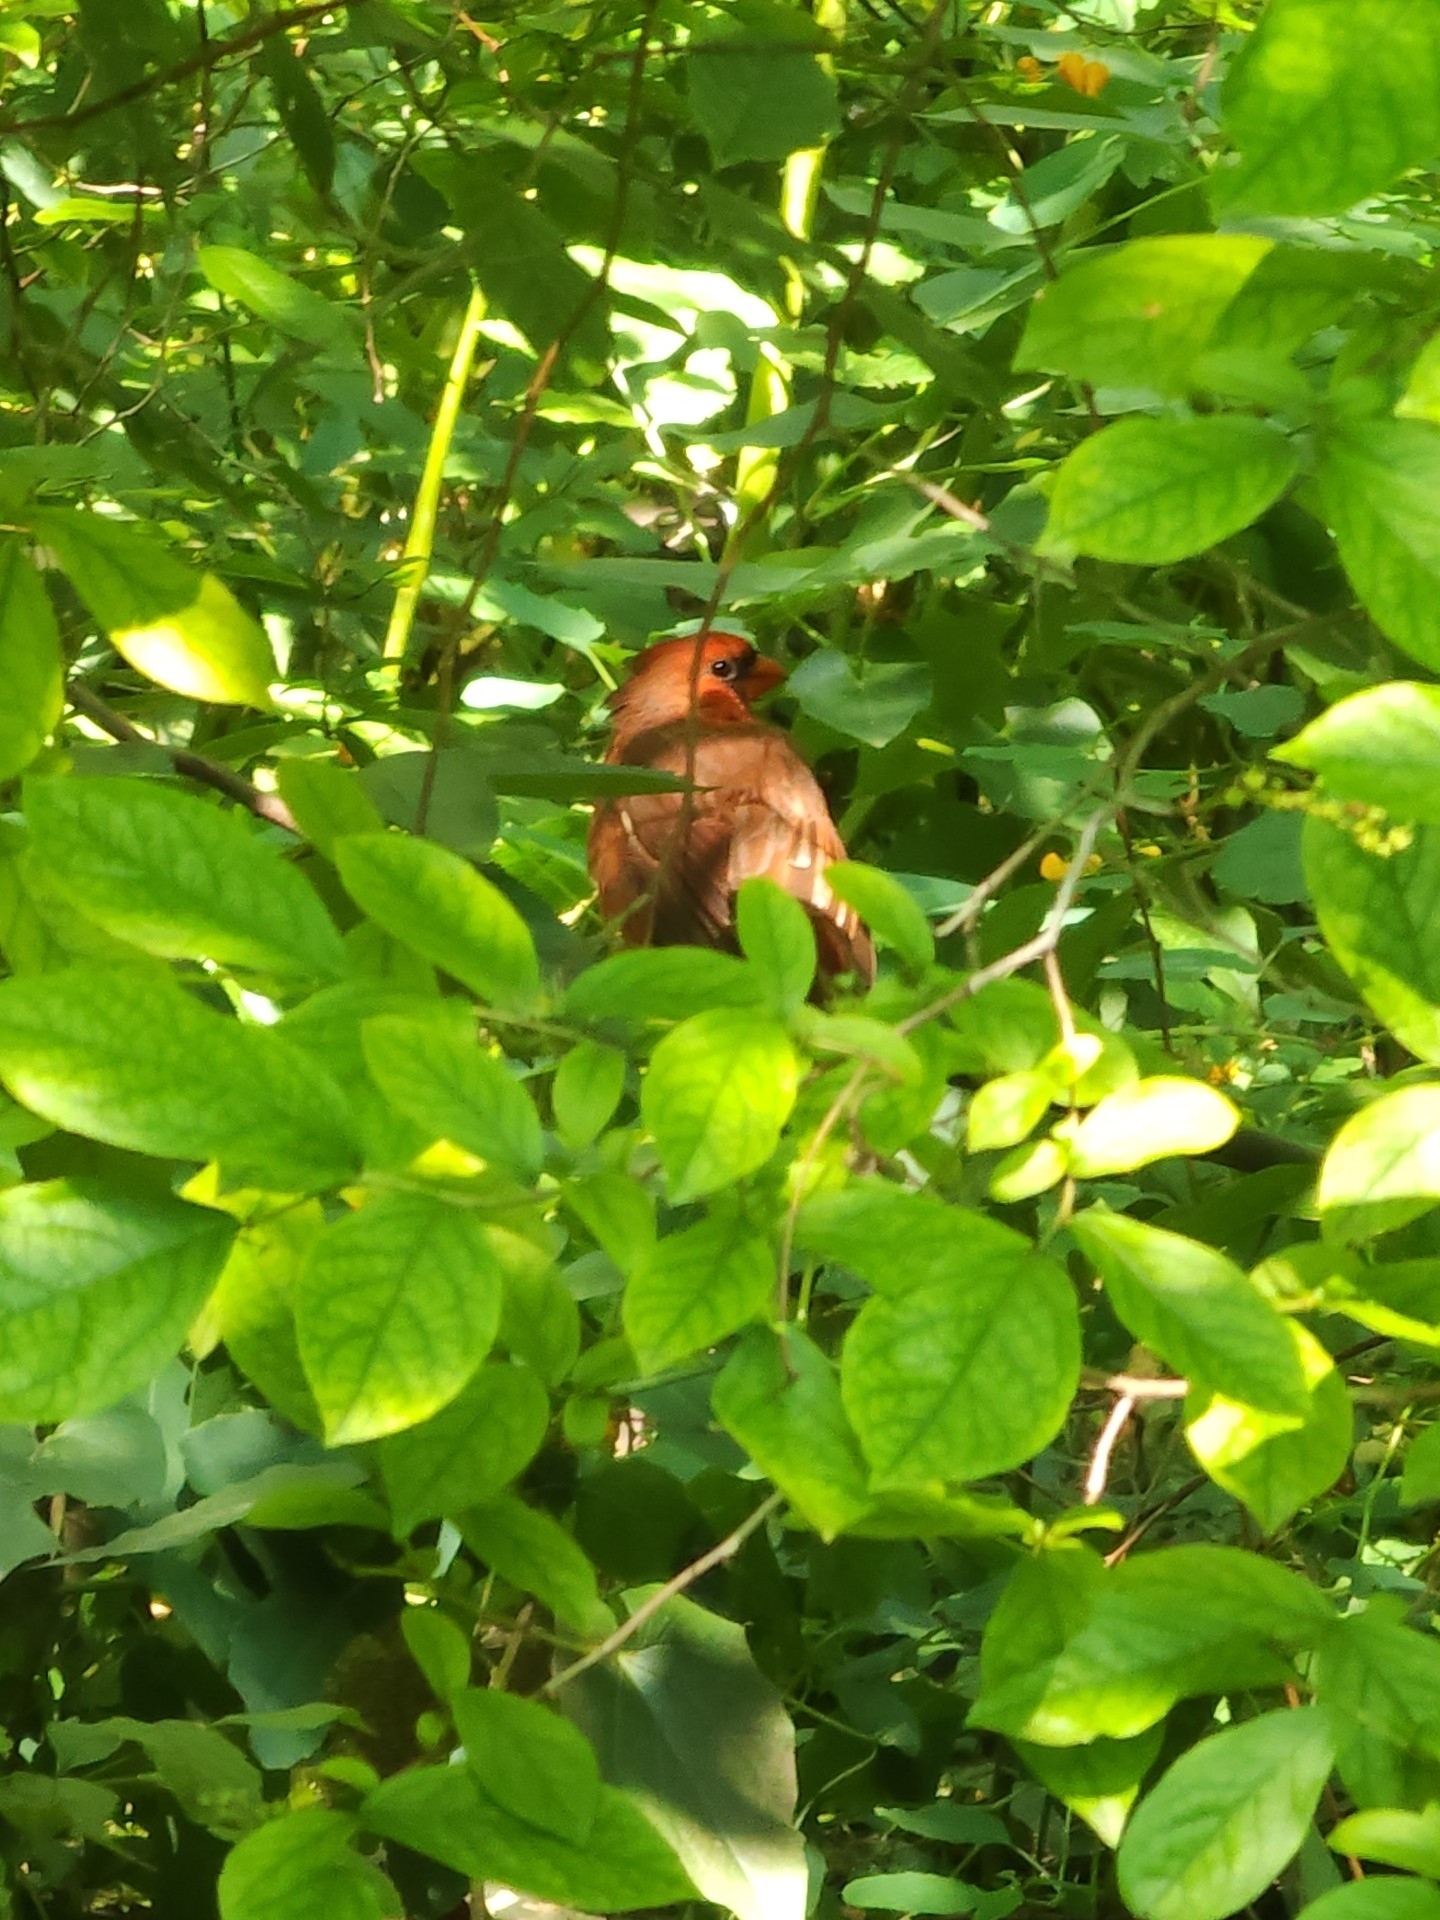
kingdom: Animalia
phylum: Chordata
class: Aves
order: Passeriformes
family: Cardinalidae
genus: Cardinalis
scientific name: Cardinalis cardinalis
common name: Northern cardinal
